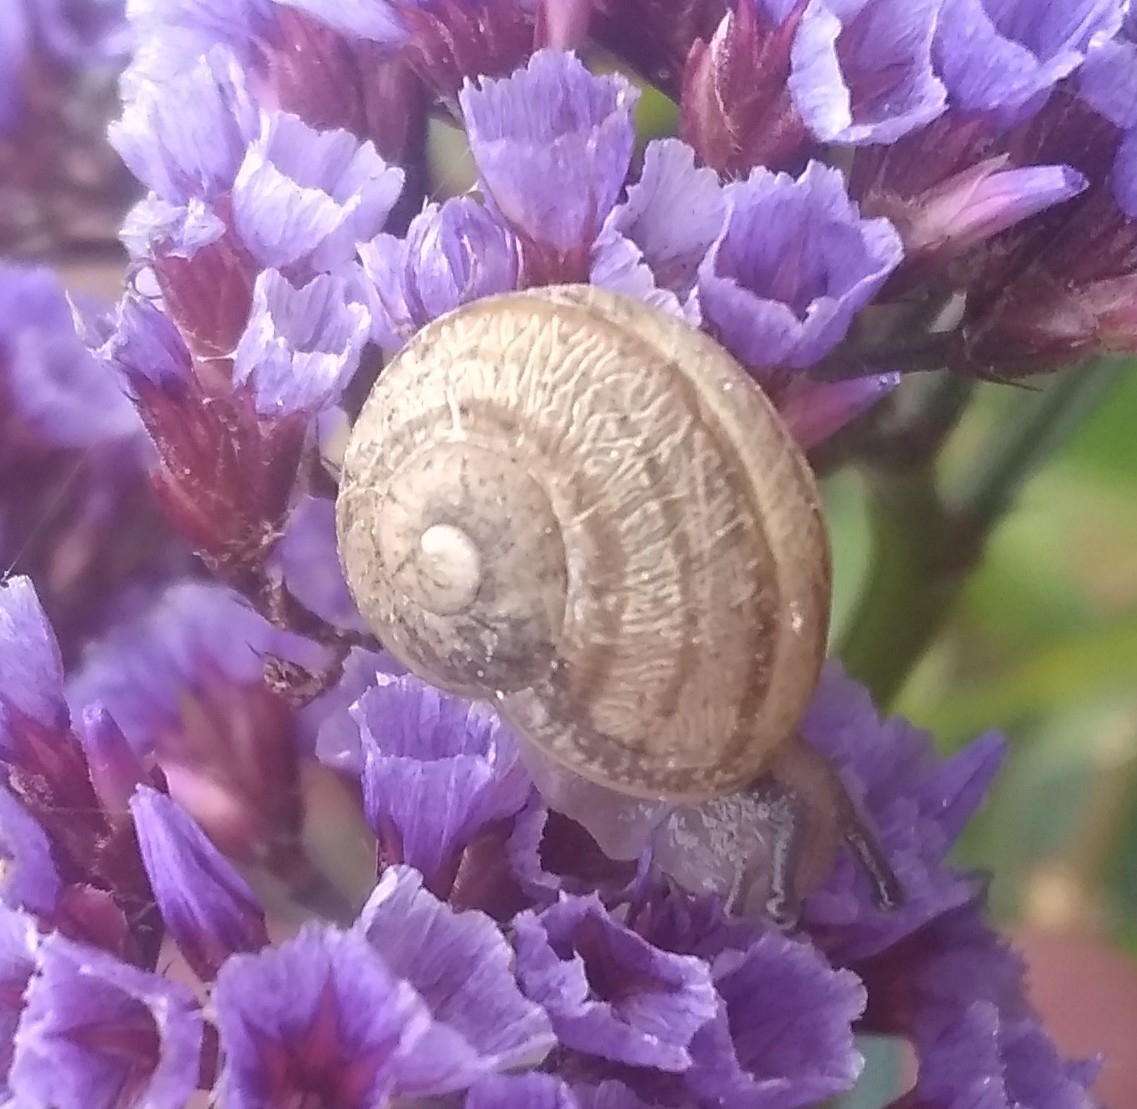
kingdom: Animalia
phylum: Mollusca
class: Gastropoda
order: Stylommatophora
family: Helicidae
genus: Cornu
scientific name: Cornu aspersum
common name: Brown garden snail
